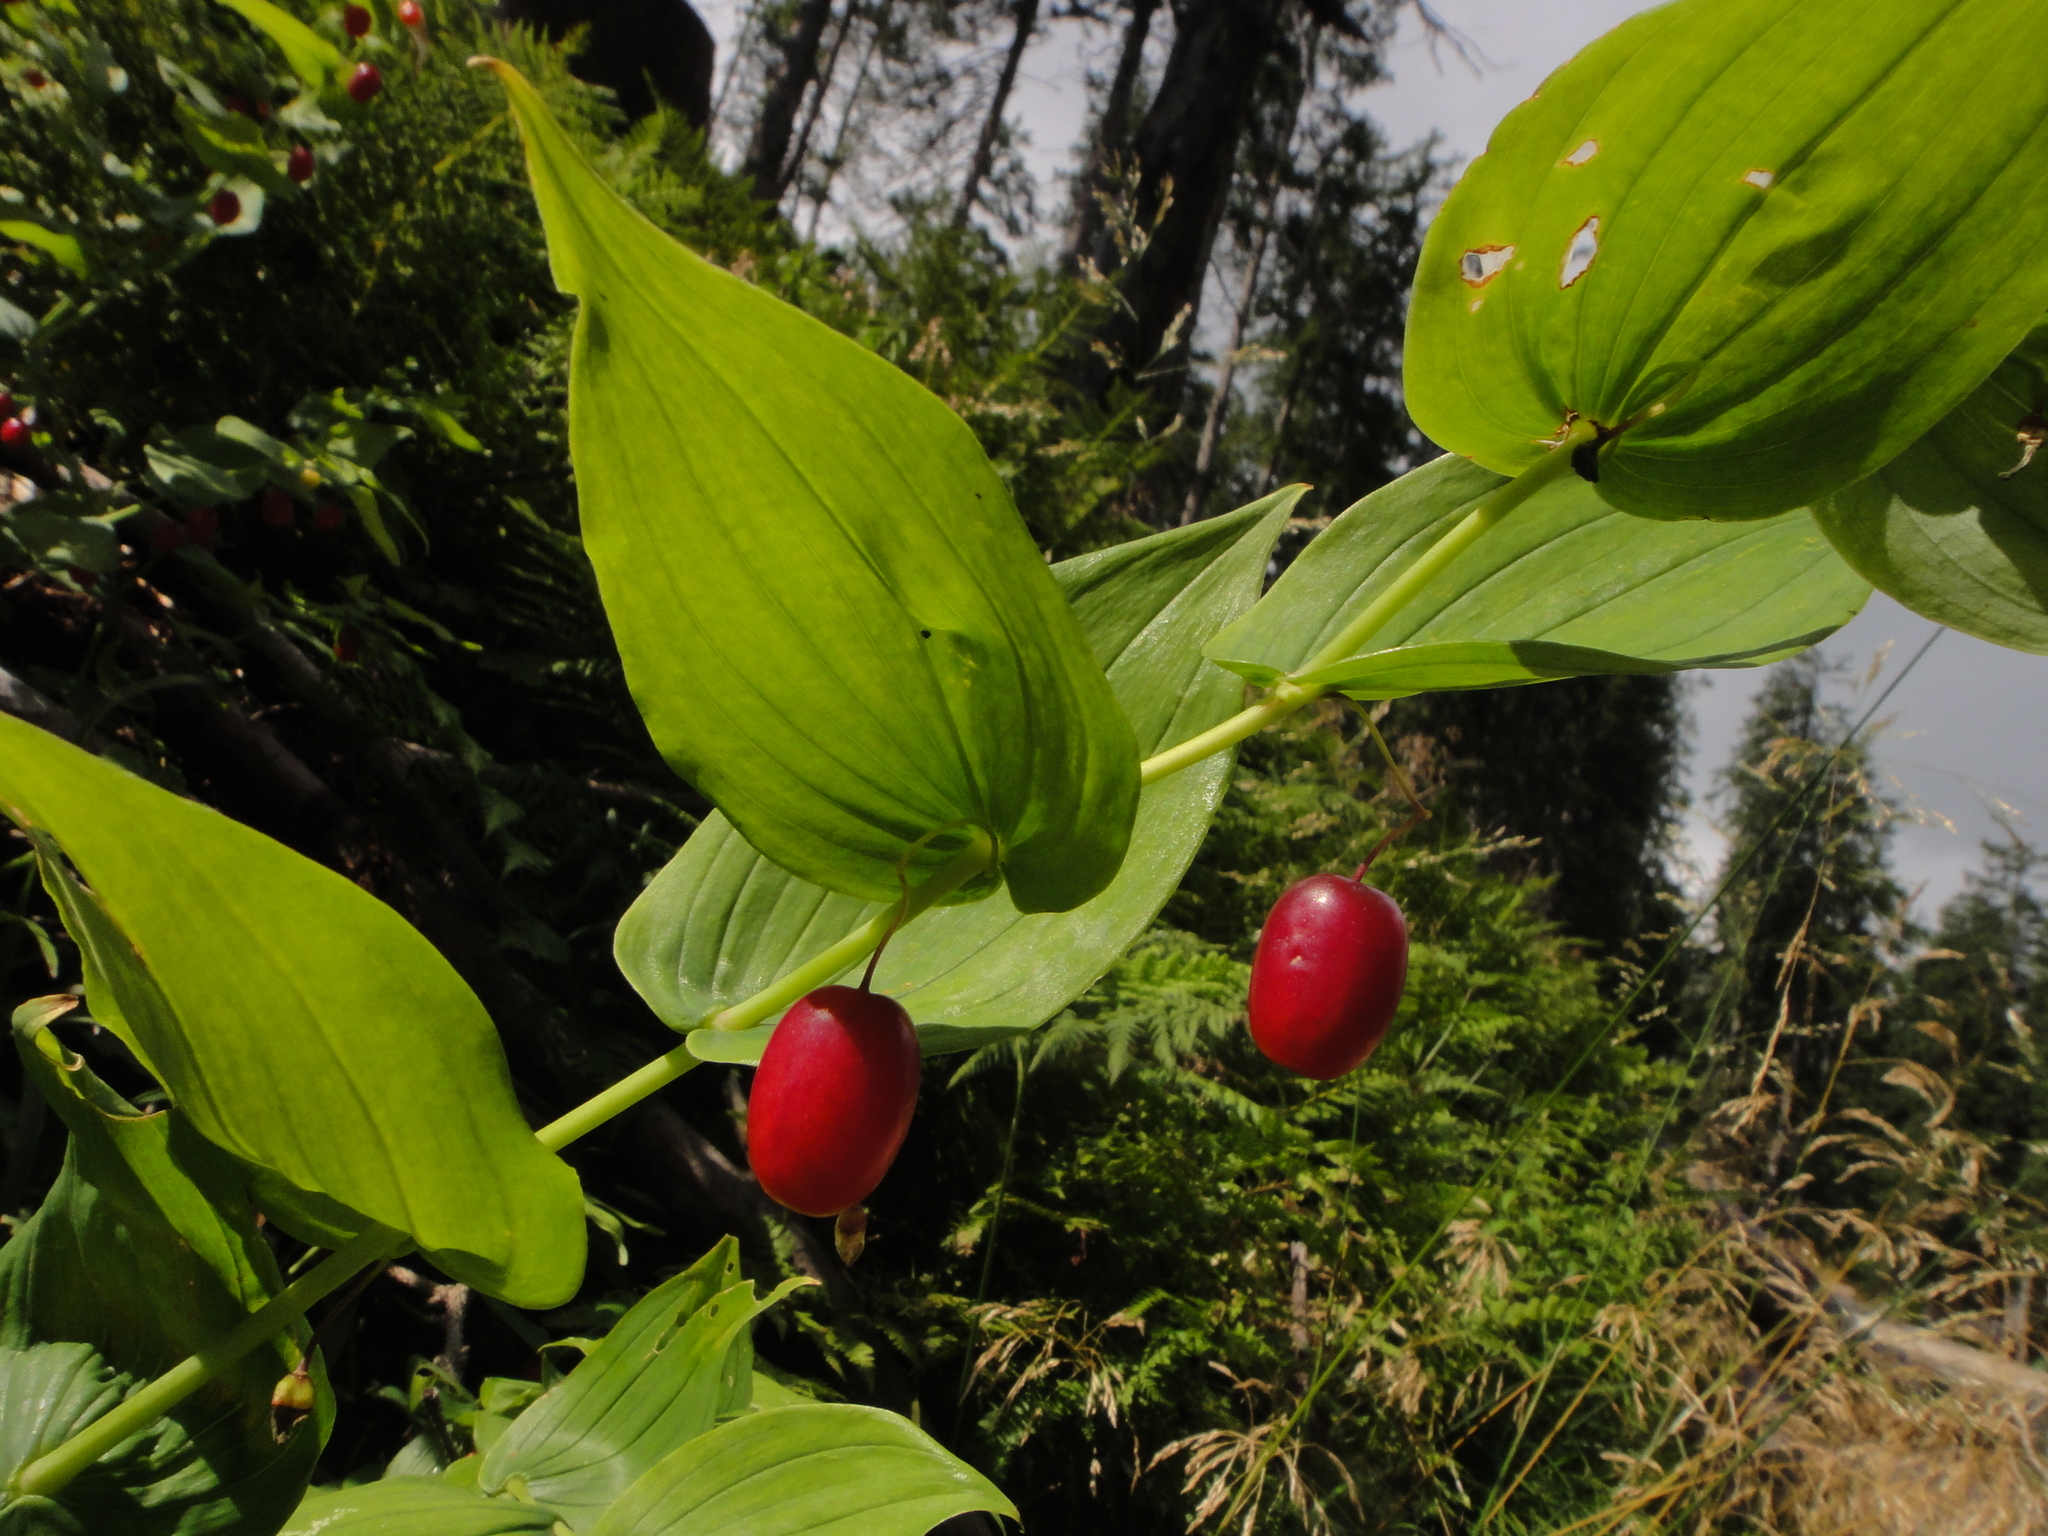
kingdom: Plantae
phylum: Tracheophyta
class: Liliopsida
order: Liliales
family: Liliaceae
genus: Streptopus
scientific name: Streptopus amplexifolius
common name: Clasp twisted stalk
